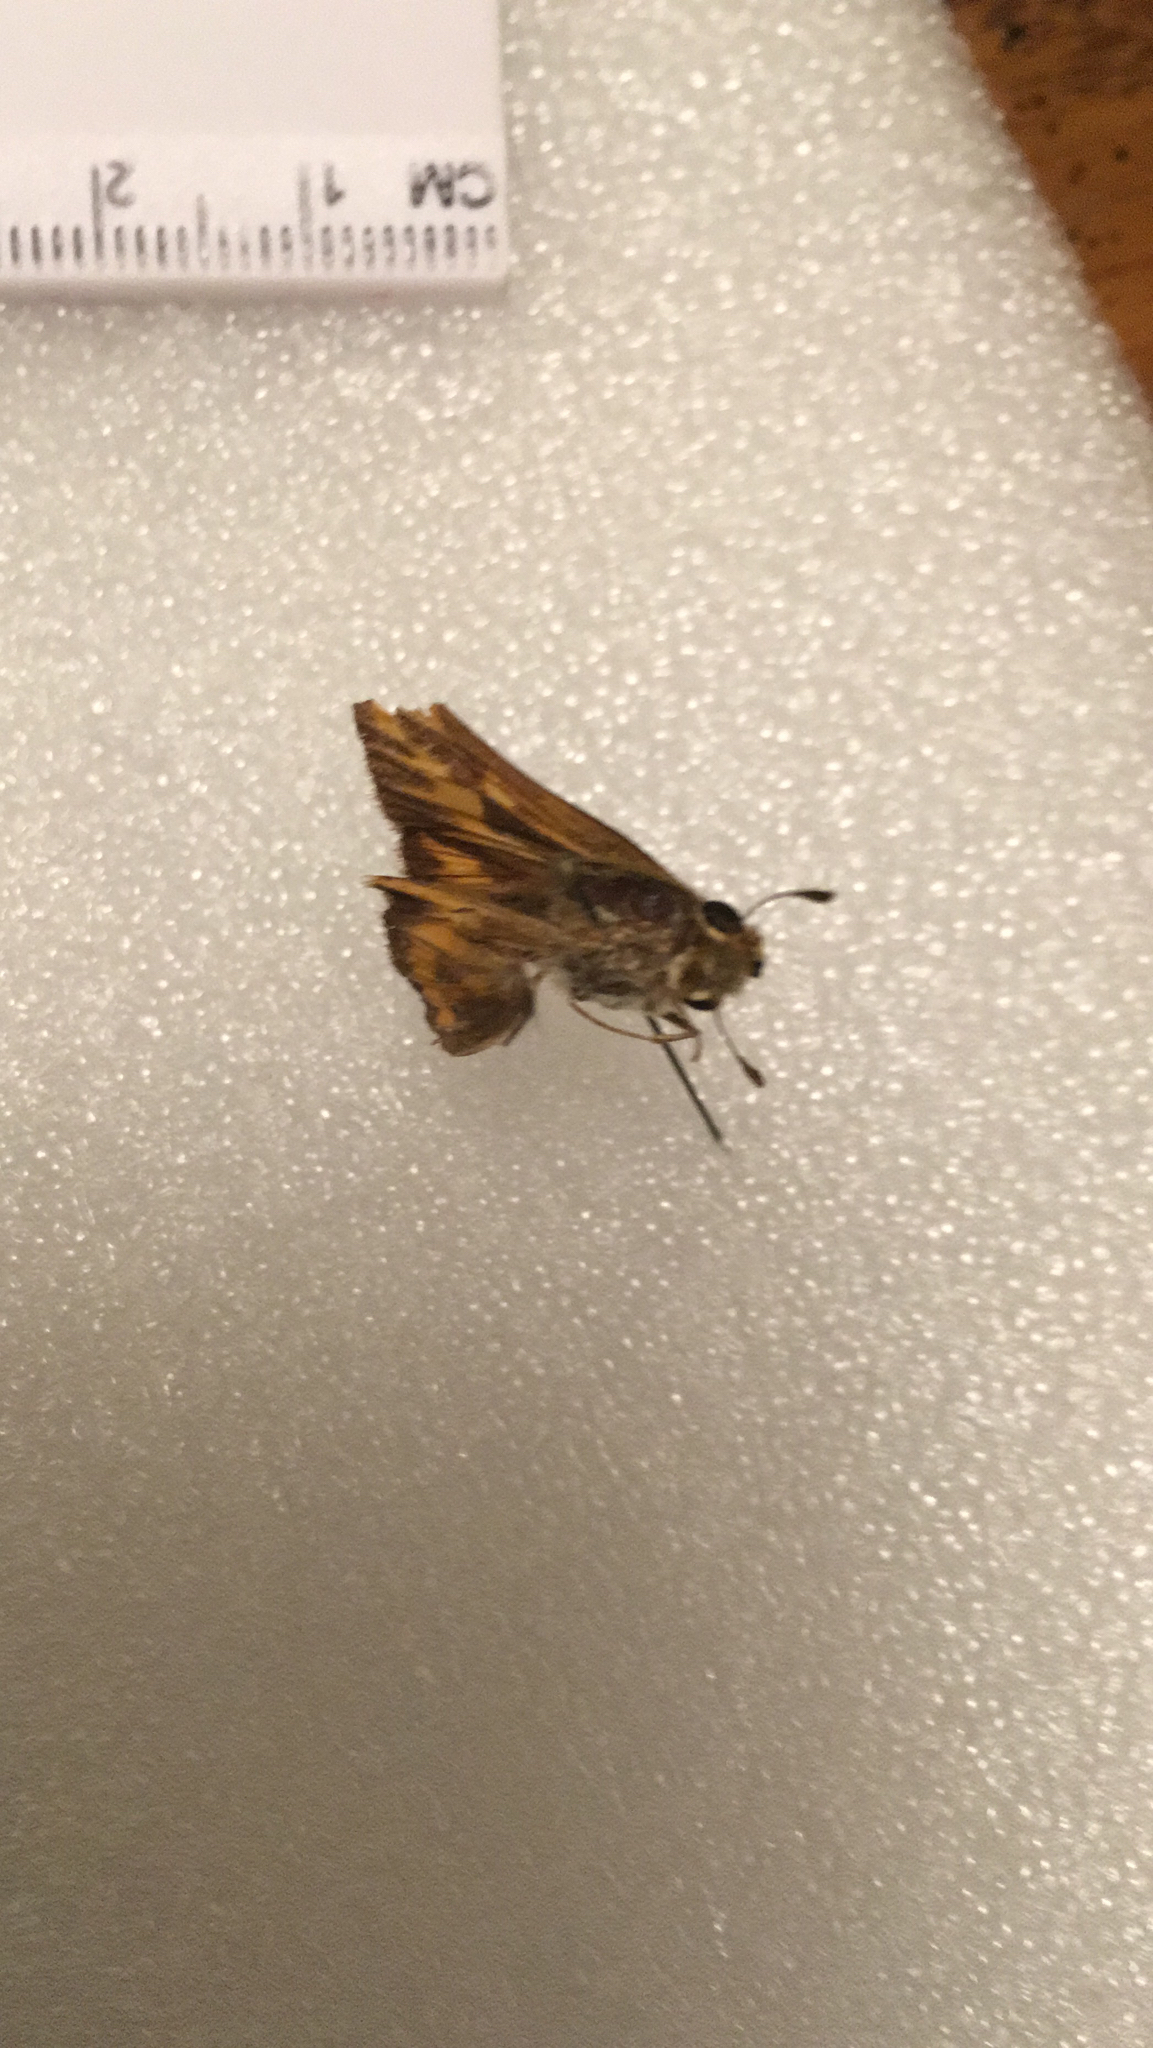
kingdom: Animalia
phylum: Arthropoda
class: Insecta
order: Lepidoptera
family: Hesperiidae
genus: Hylephila
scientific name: Hylephila phyleus
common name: Fiery skipper
